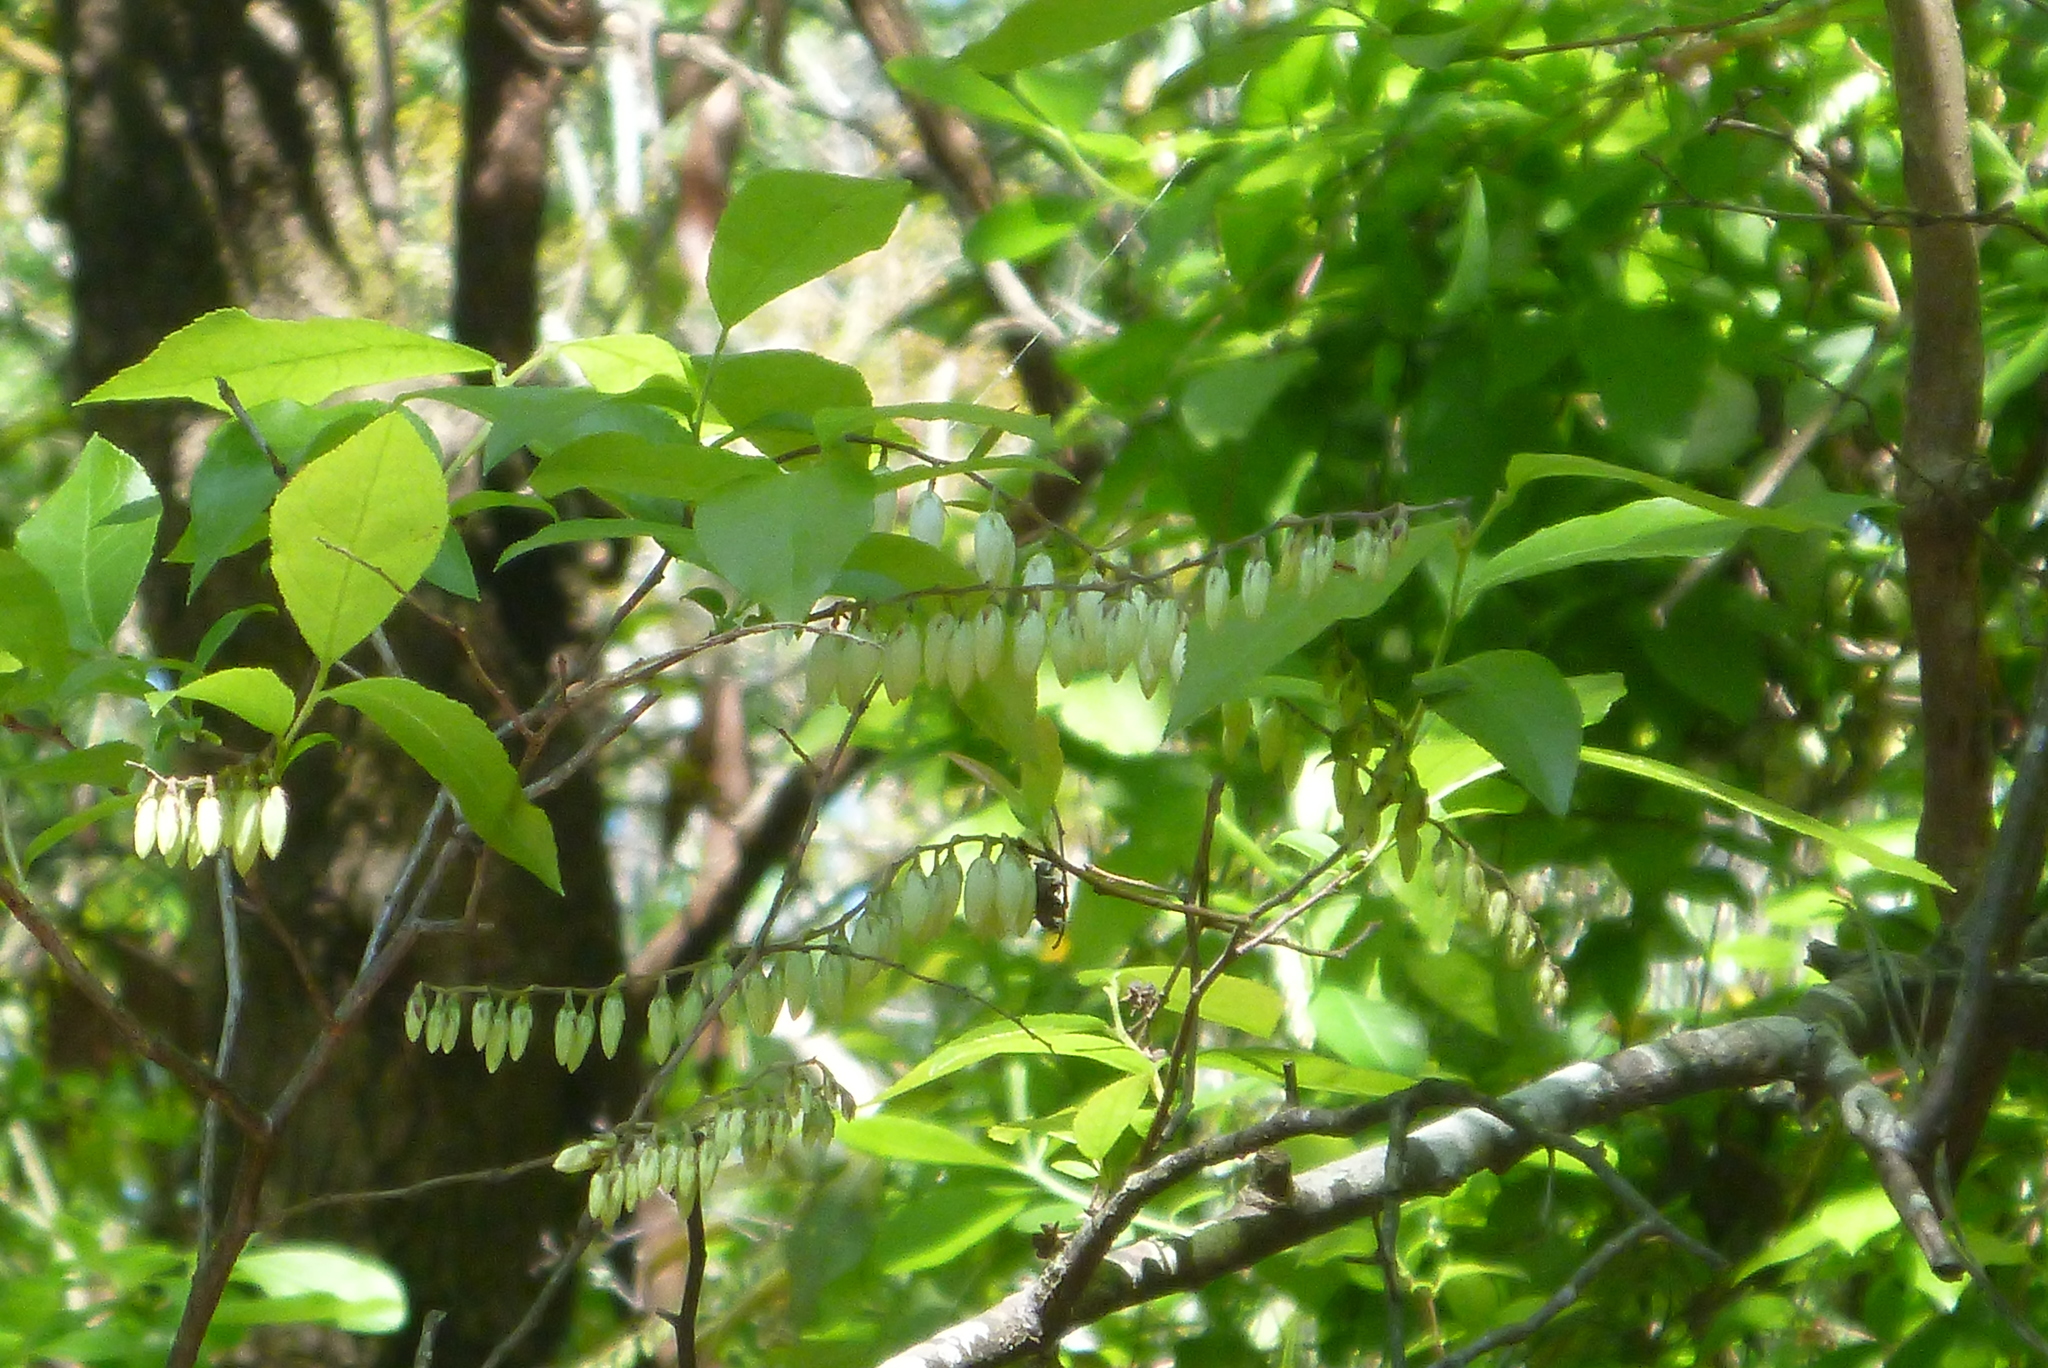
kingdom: Plantae
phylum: Tracheophyta
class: Magnoliopsida
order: Ericales
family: Ericaceae
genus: Eubotrys
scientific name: Eubotrys racemosa
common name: Fetterbush
